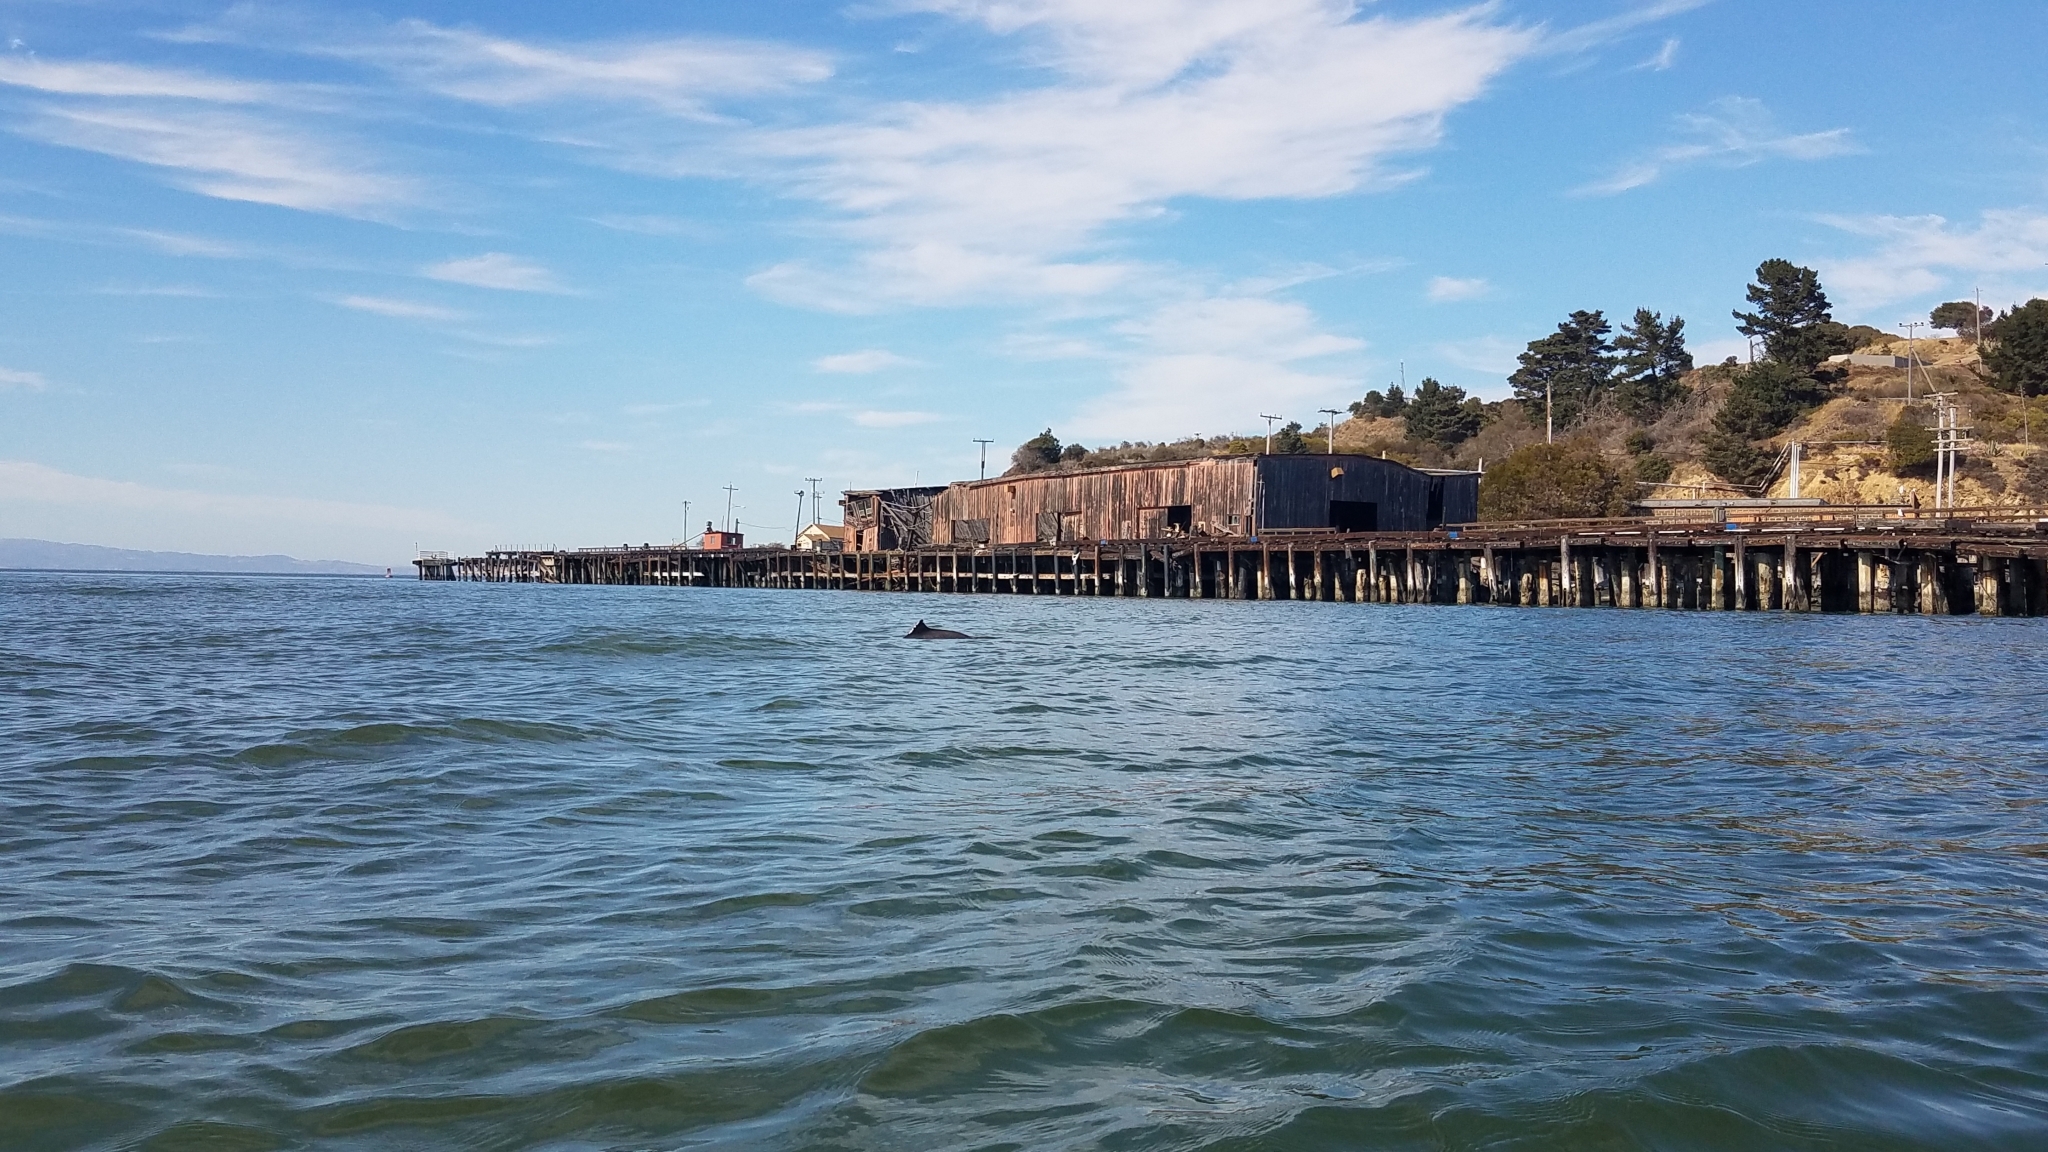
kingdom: Animalia
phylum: Chordata
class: Mammalia
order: Cetacea
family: Phocoenidae
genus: Phocoena
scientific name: Phocoena phocoena
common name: Harbor porpoise
